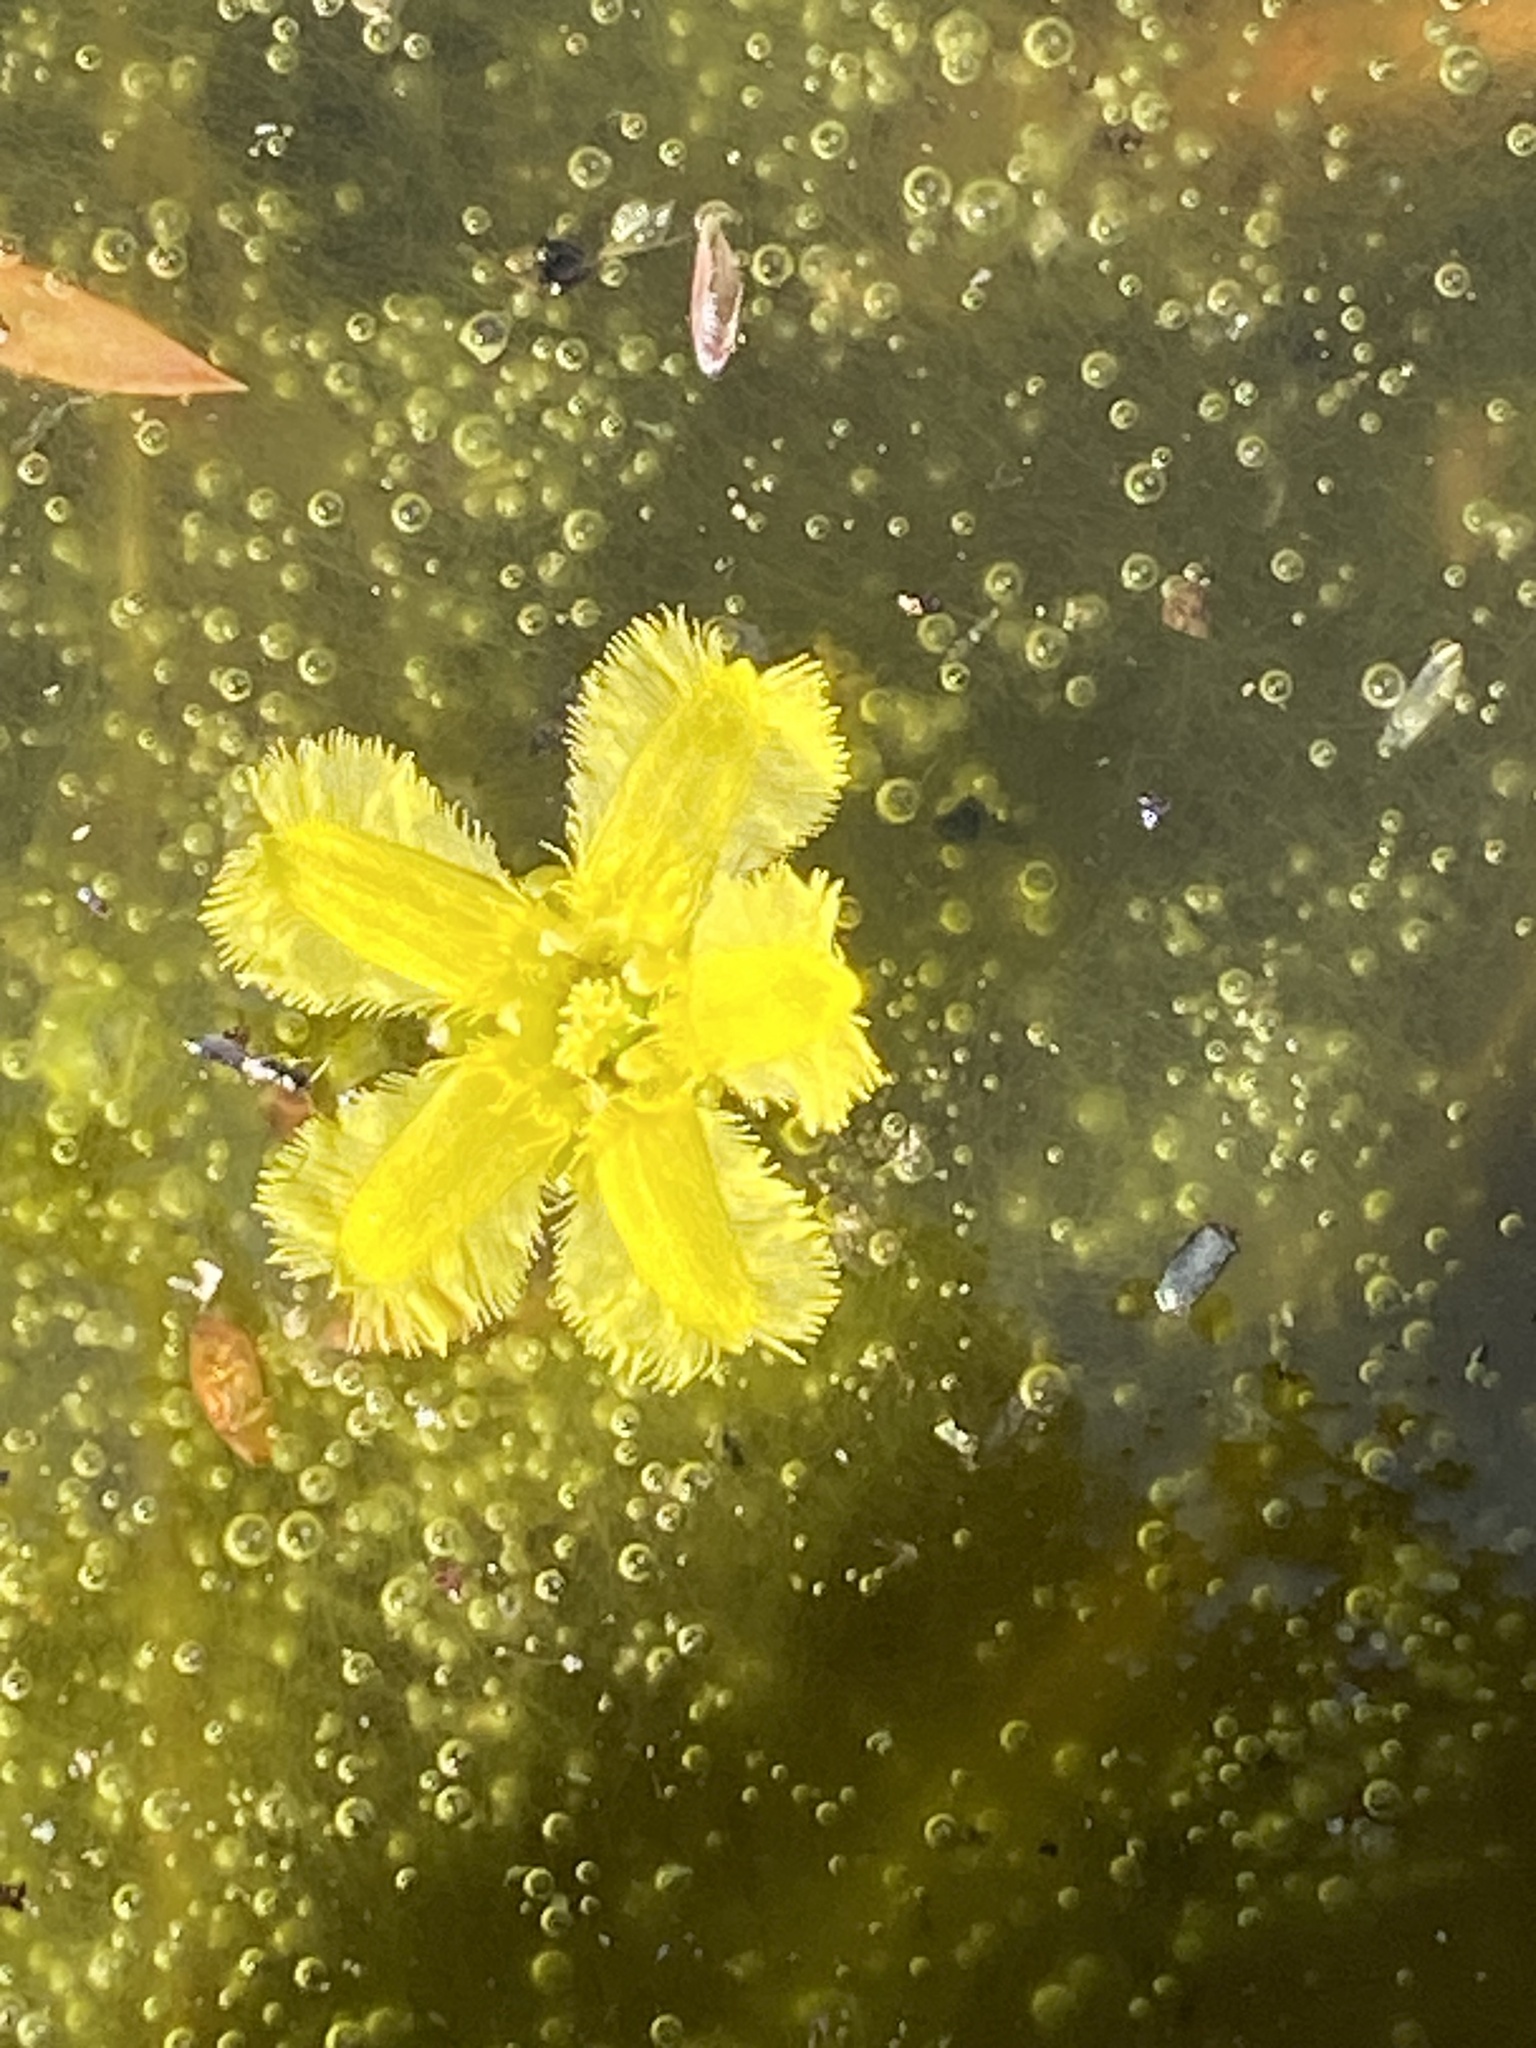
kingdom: Plantae
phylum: Tracheophyta
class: Magnoliopsida
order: Asterales
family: Menyanthaceae
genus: Nymphoides
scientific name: Nymphoides peltata
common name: Fringed water-lily
